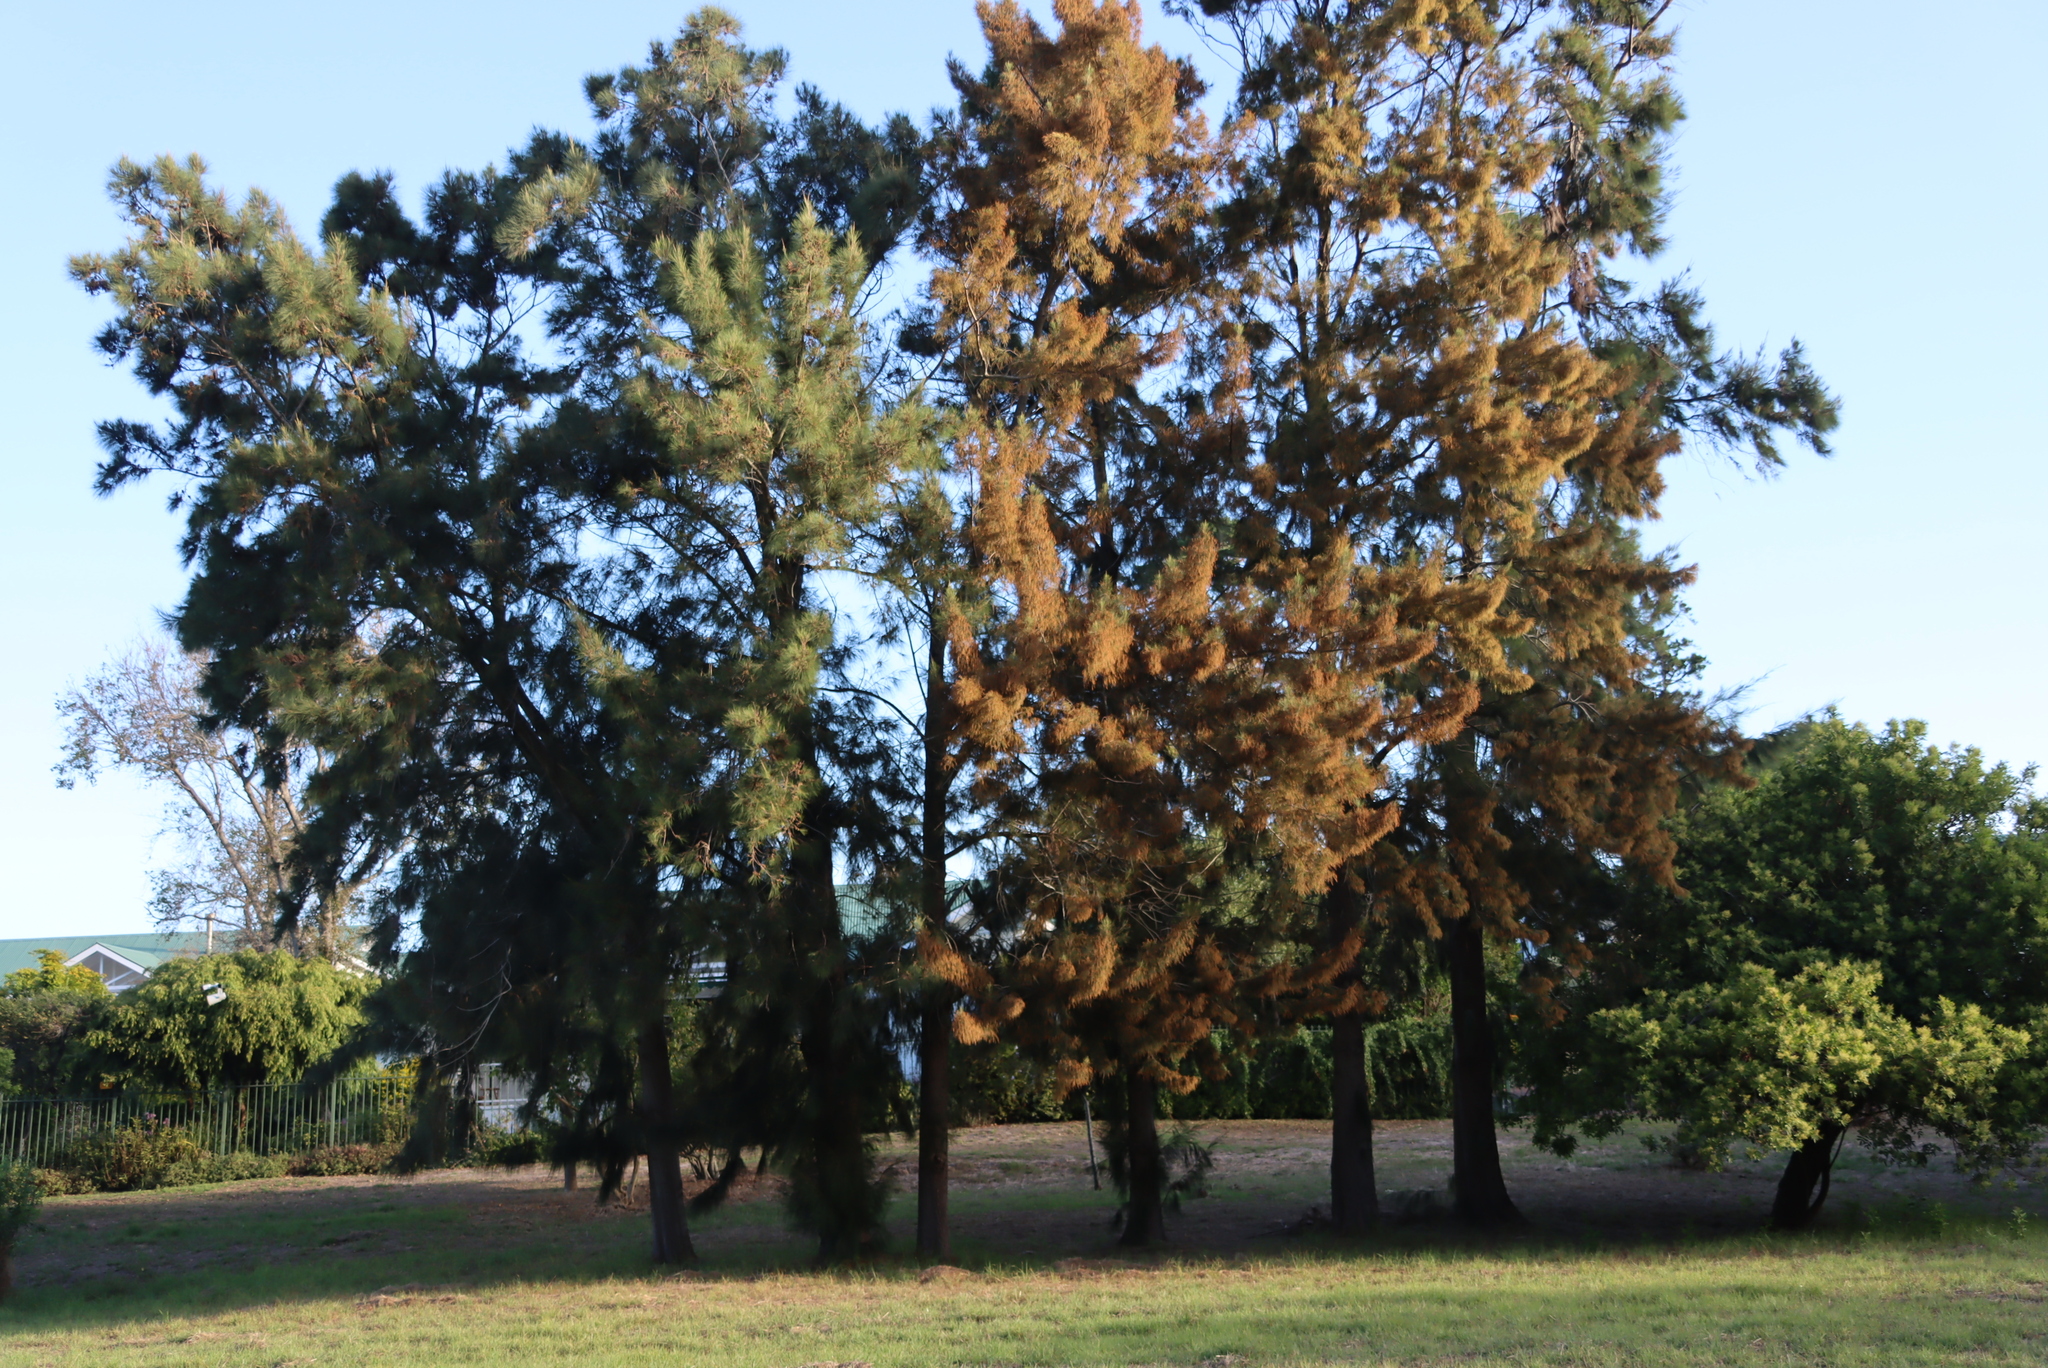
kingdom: Plantae
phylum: Tracheophyta
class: Magnoliopsida
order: Fagales
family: Casuarinaceae
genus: Casuarina
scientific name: Casuarina cunninghamiana
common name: River sheoak
